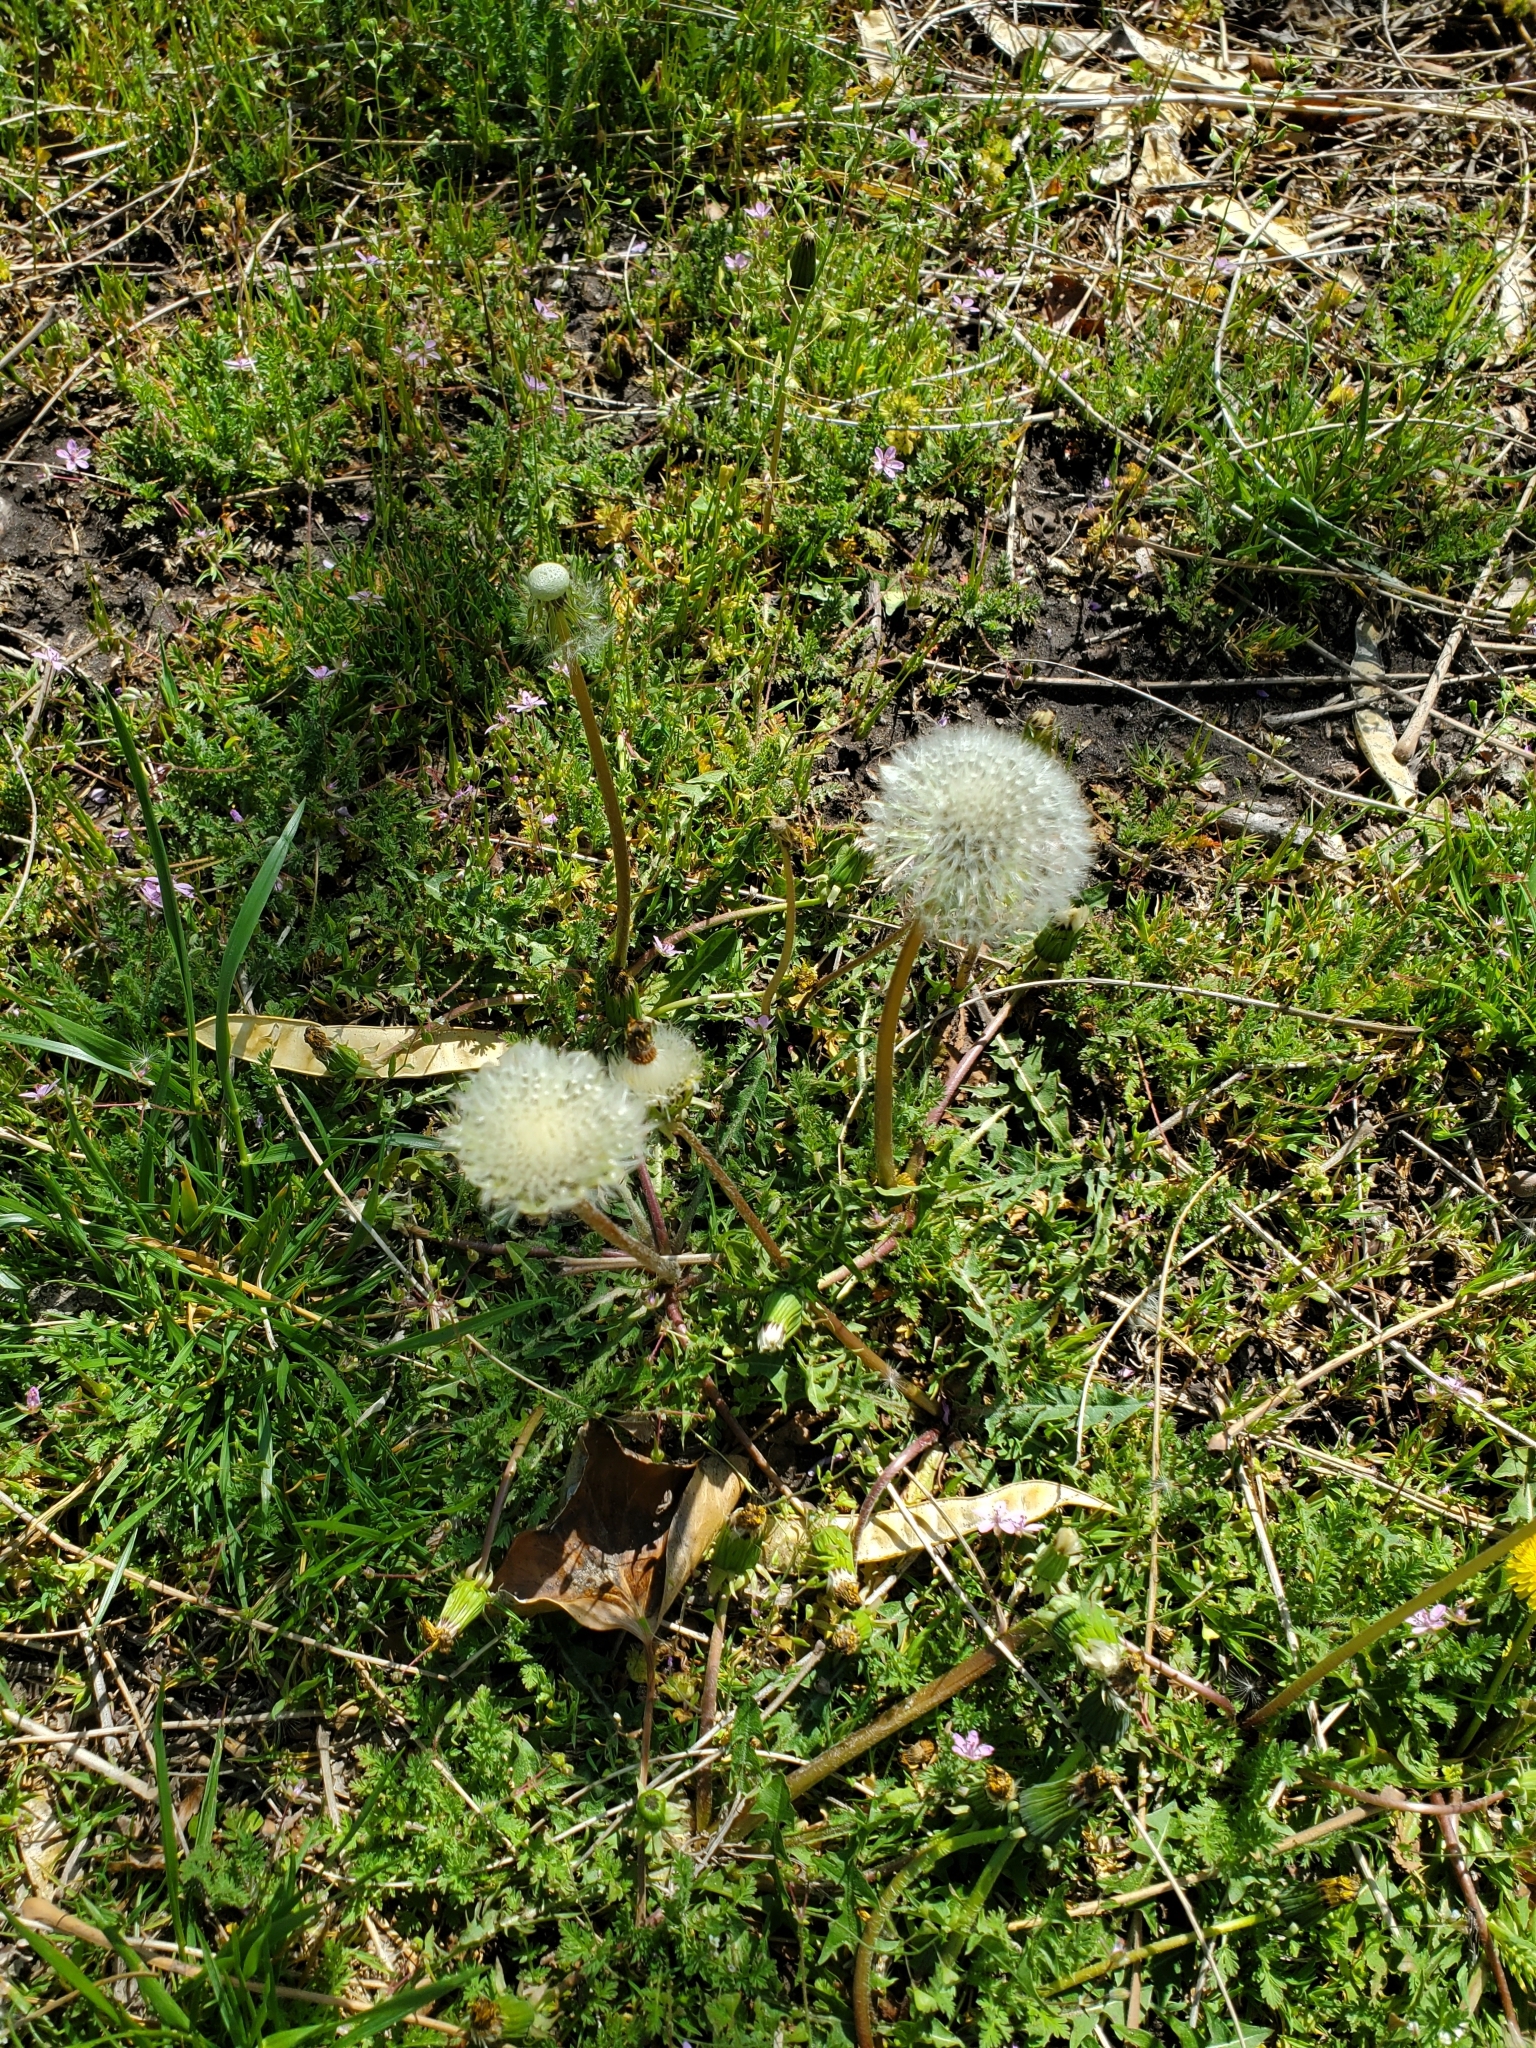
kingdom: Plantae
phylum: Tracheophyta
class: Magnoliopsida
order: Asterales
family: Asteraceae
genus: Taraxacum
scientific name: Taraxacum officinale
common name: Common dandelion
